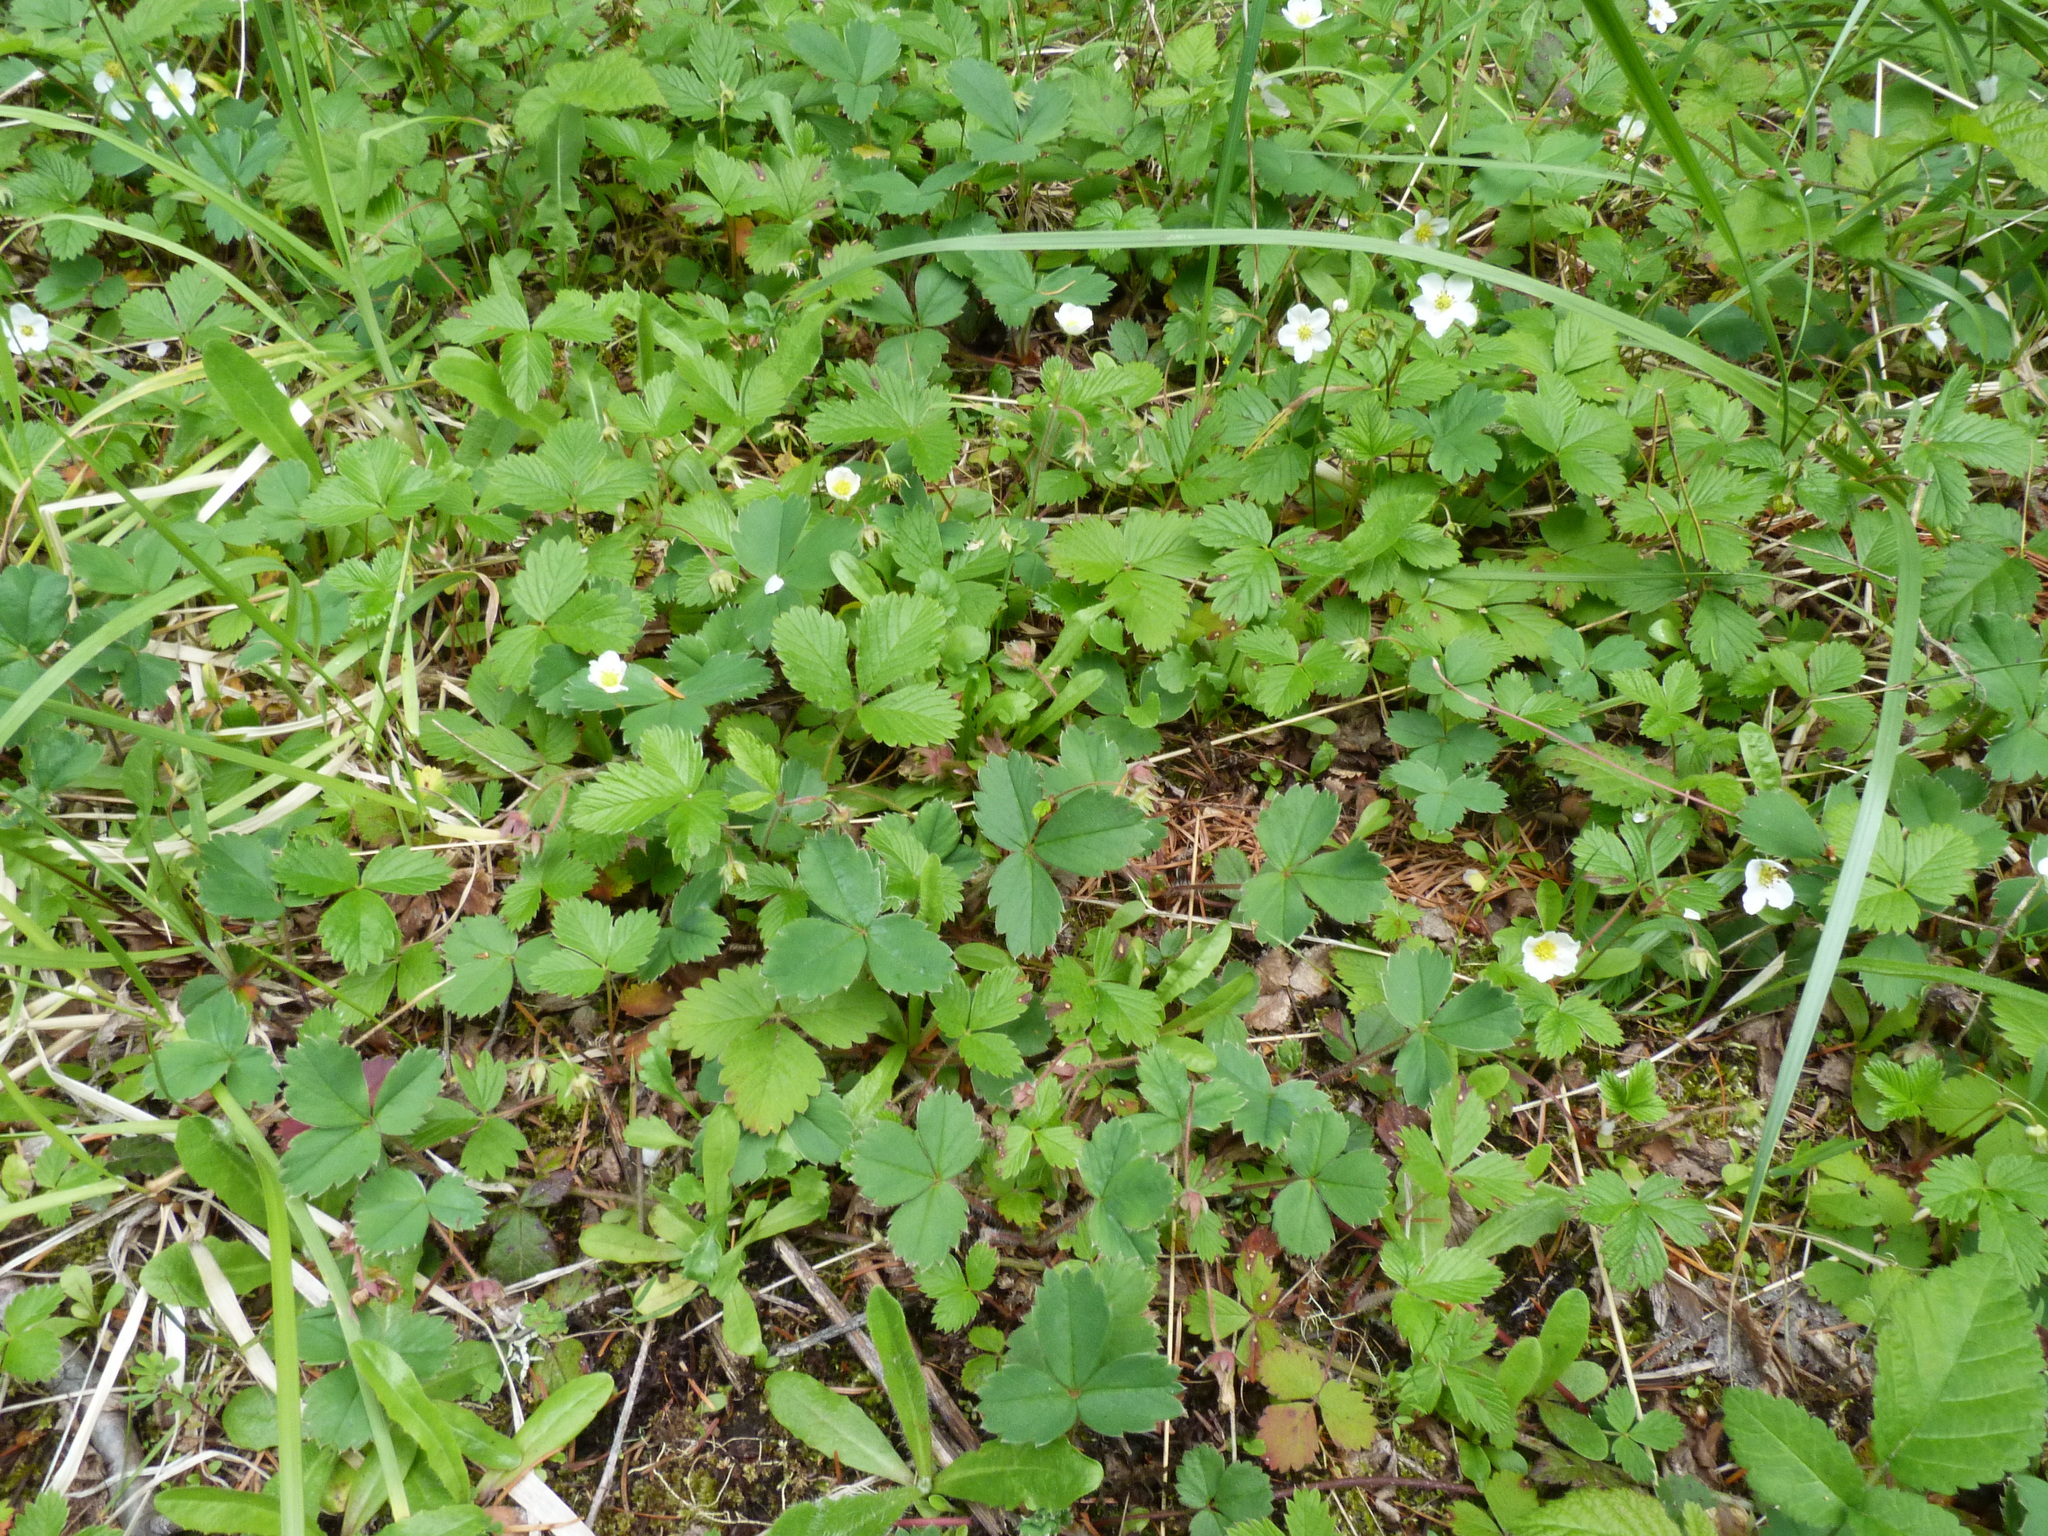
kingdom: Plantae
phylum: Tracheophyta
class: Magnoliopsida
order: Rosales
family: Rosaceae
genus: Fragaria
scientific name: Fragaria vesca
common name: Wild strawberry
